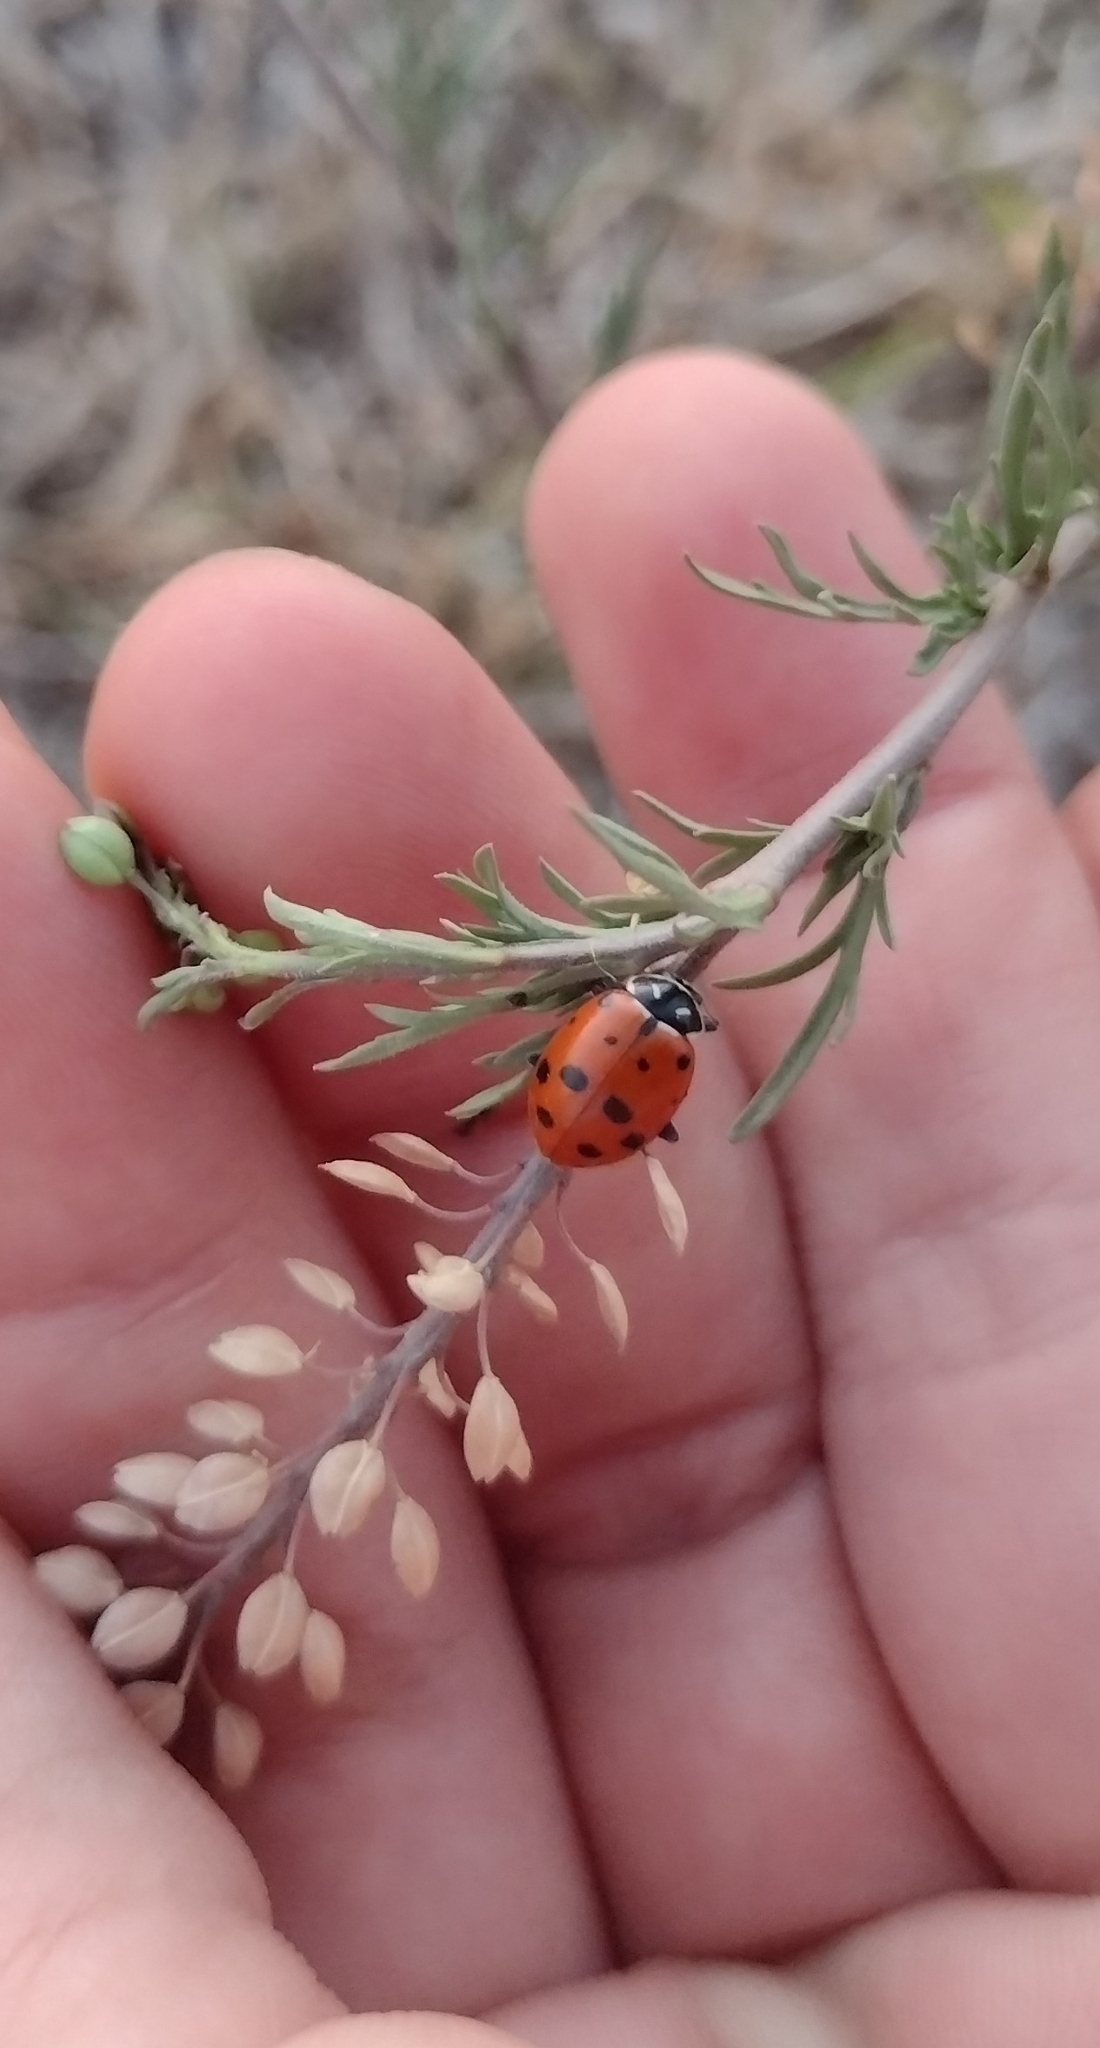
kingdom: Animalia
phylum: Arthropoda
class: Insecta
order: Coleoptera
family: Coccinellidae
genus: Hippodamia
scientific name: Hippodamia convergens
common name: Convergent lady beetle
